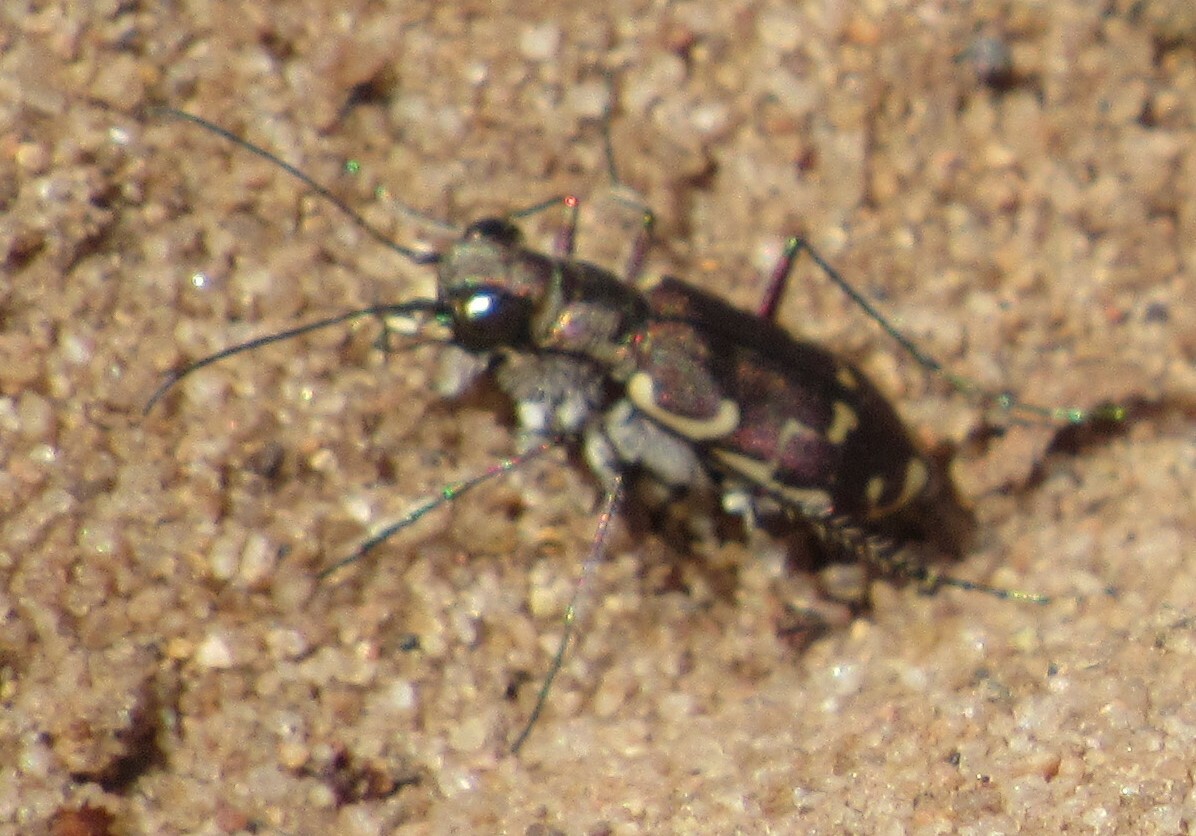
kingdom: Animalia
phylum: Arthropoda
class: Insecta
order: Coleoptera
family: Carabidae
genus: Cicindela
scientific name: Cicindela repanda
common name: Bronzed tiger beetle
